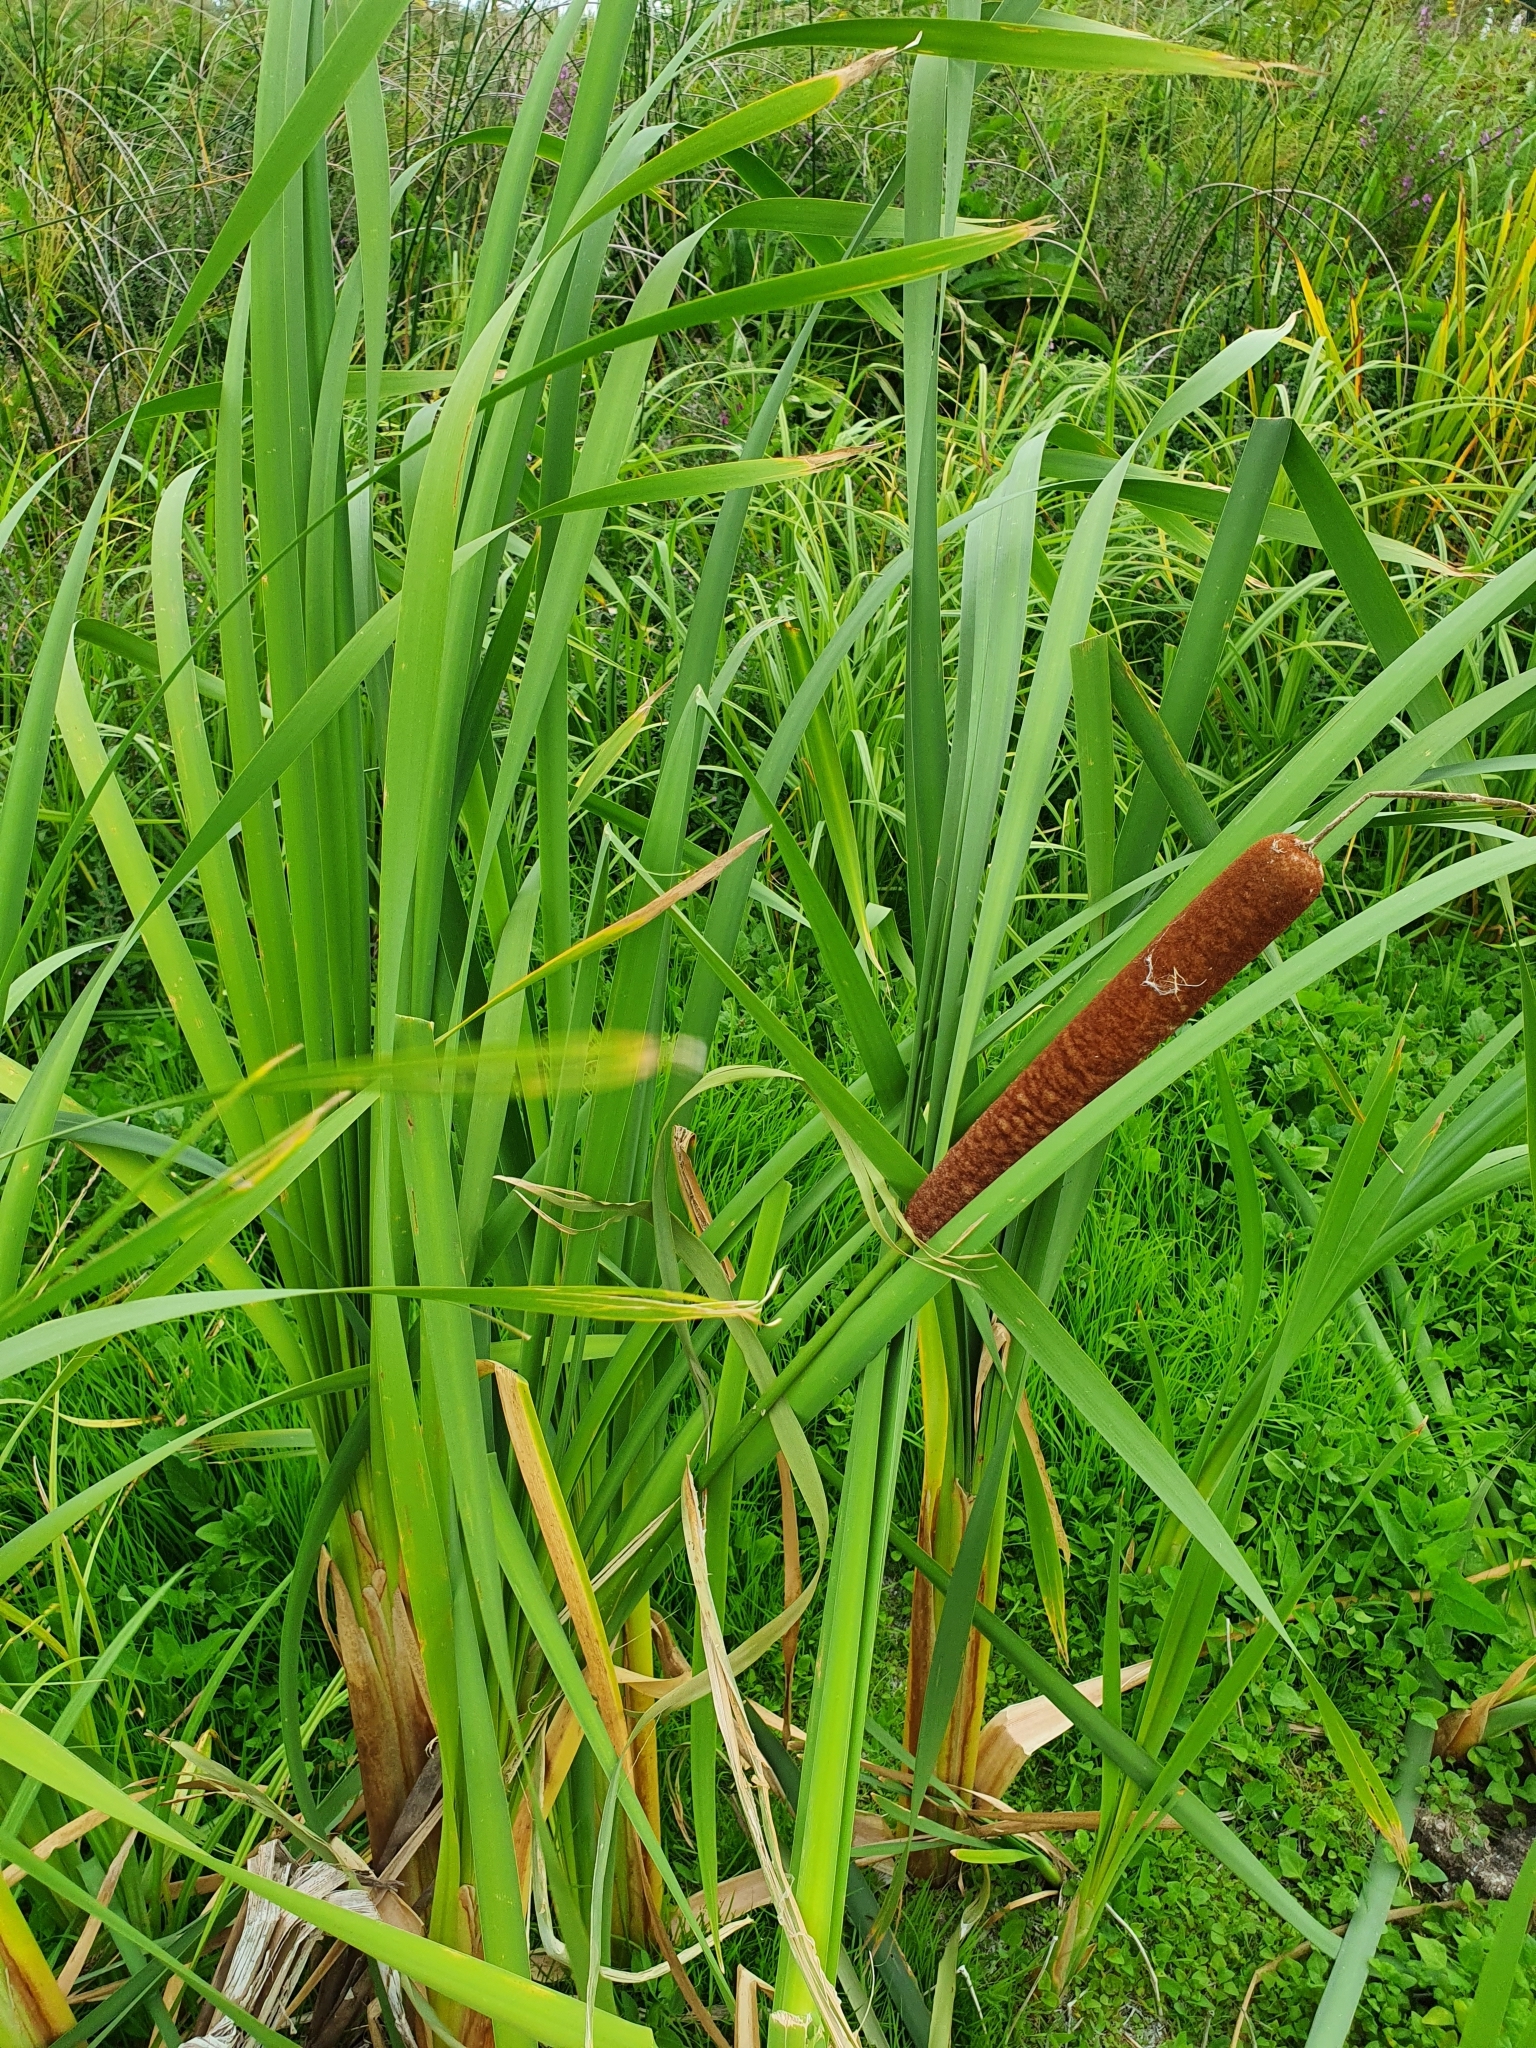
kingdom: Plantae
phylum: Tracheophyta
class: Liliopsida
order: Poales
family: Typhaceae
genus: Typha
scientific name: Typha latifolia
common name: Broadleaf cattail
